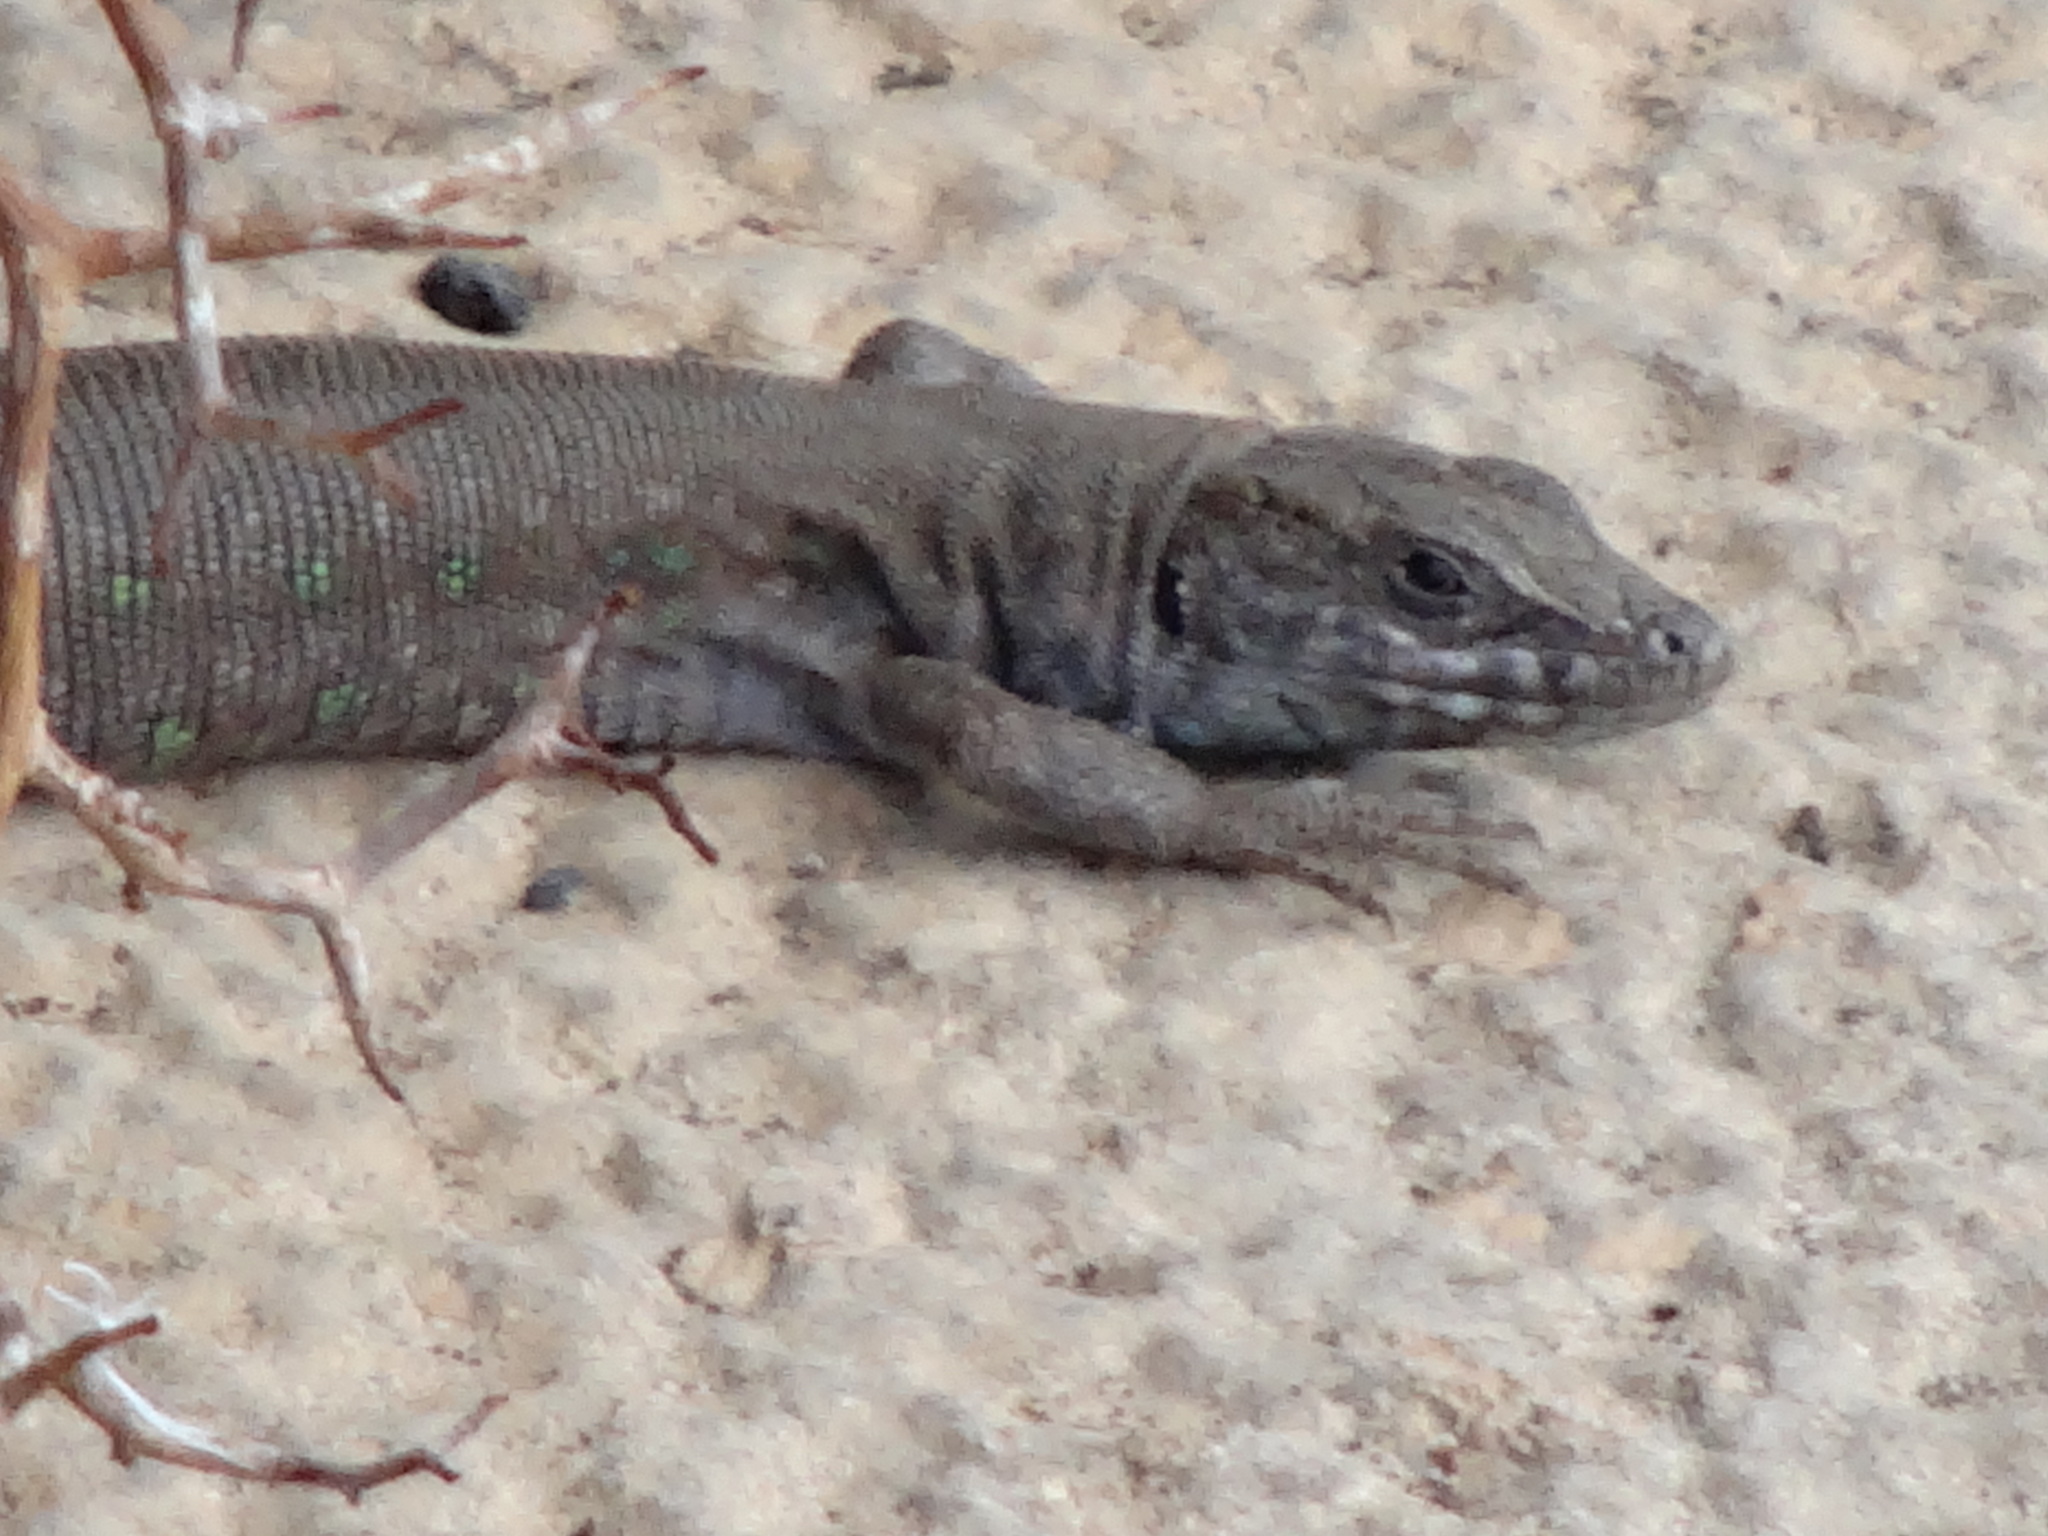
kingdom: Animalia
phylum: Chordata
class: Squamata
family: Lacertidae
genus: Gallotia
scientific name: Gallotia atlantica
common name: Atlantic lizard
